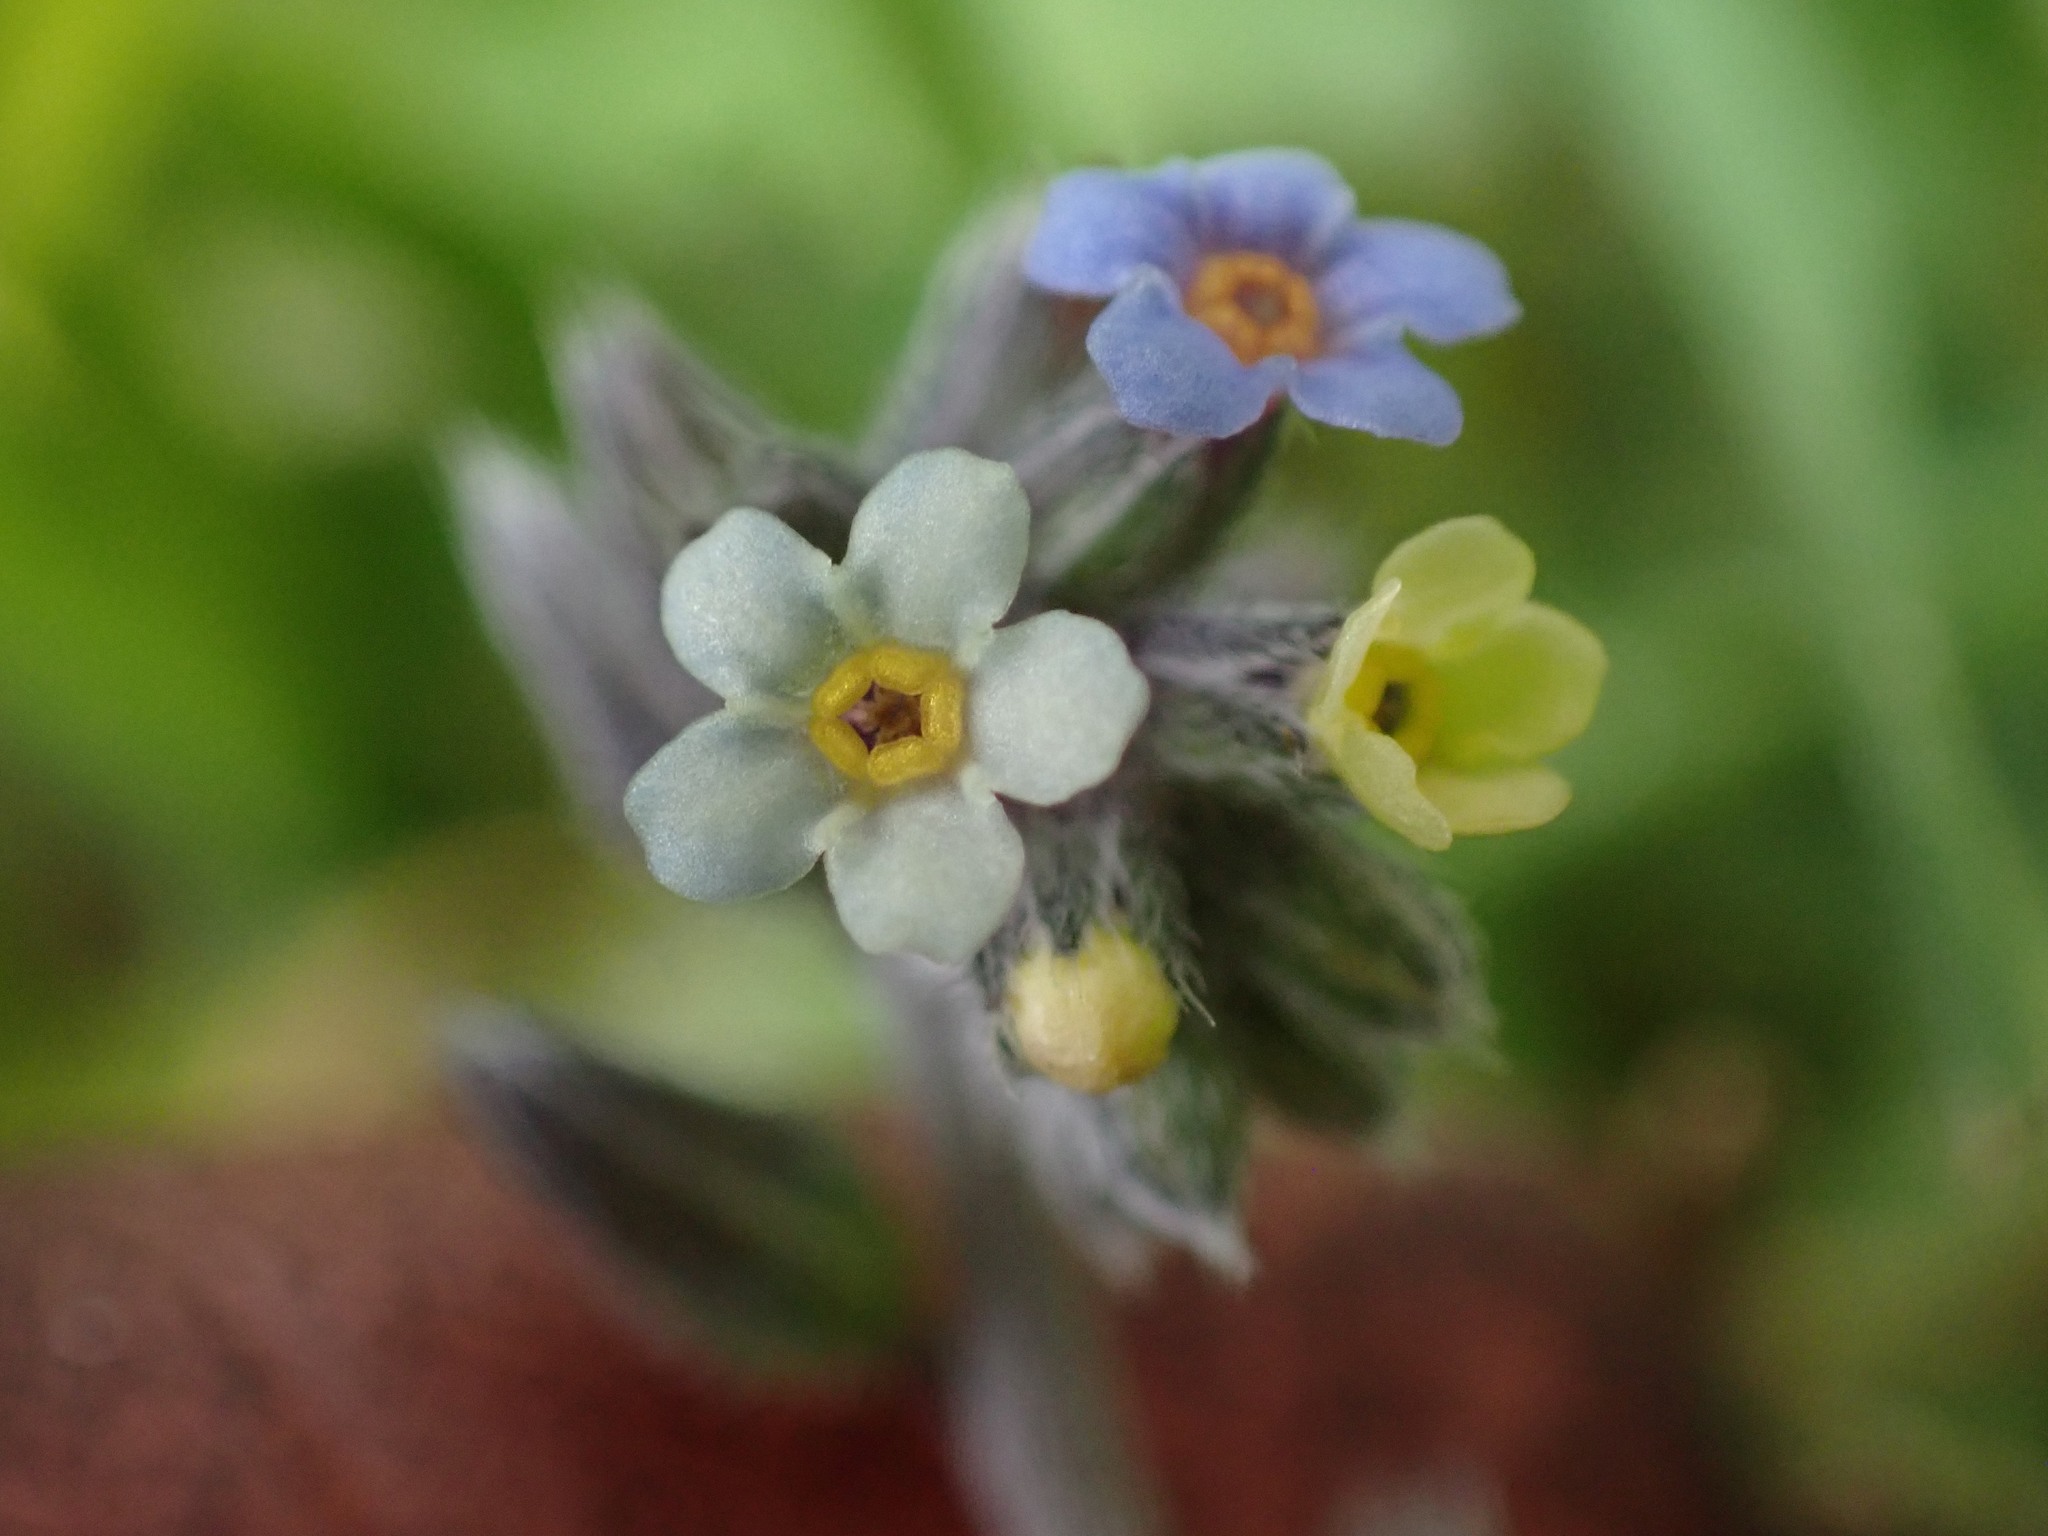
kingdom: Plantae
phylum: Tracheophyta
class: Magnoliopsida
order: Boraginales
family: Boraginaceae
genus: Myosotis
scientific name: Myosotis discolor
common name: Changing forget-me-not
